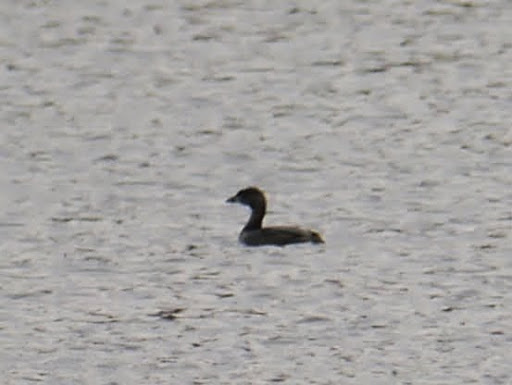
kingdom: Animalia
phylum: Chordata
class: Aves
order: Podicipediformes
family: Podicipedidae
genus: Podilymbus
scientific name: Podilymbus podiceps
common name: Pied-billed grebe
